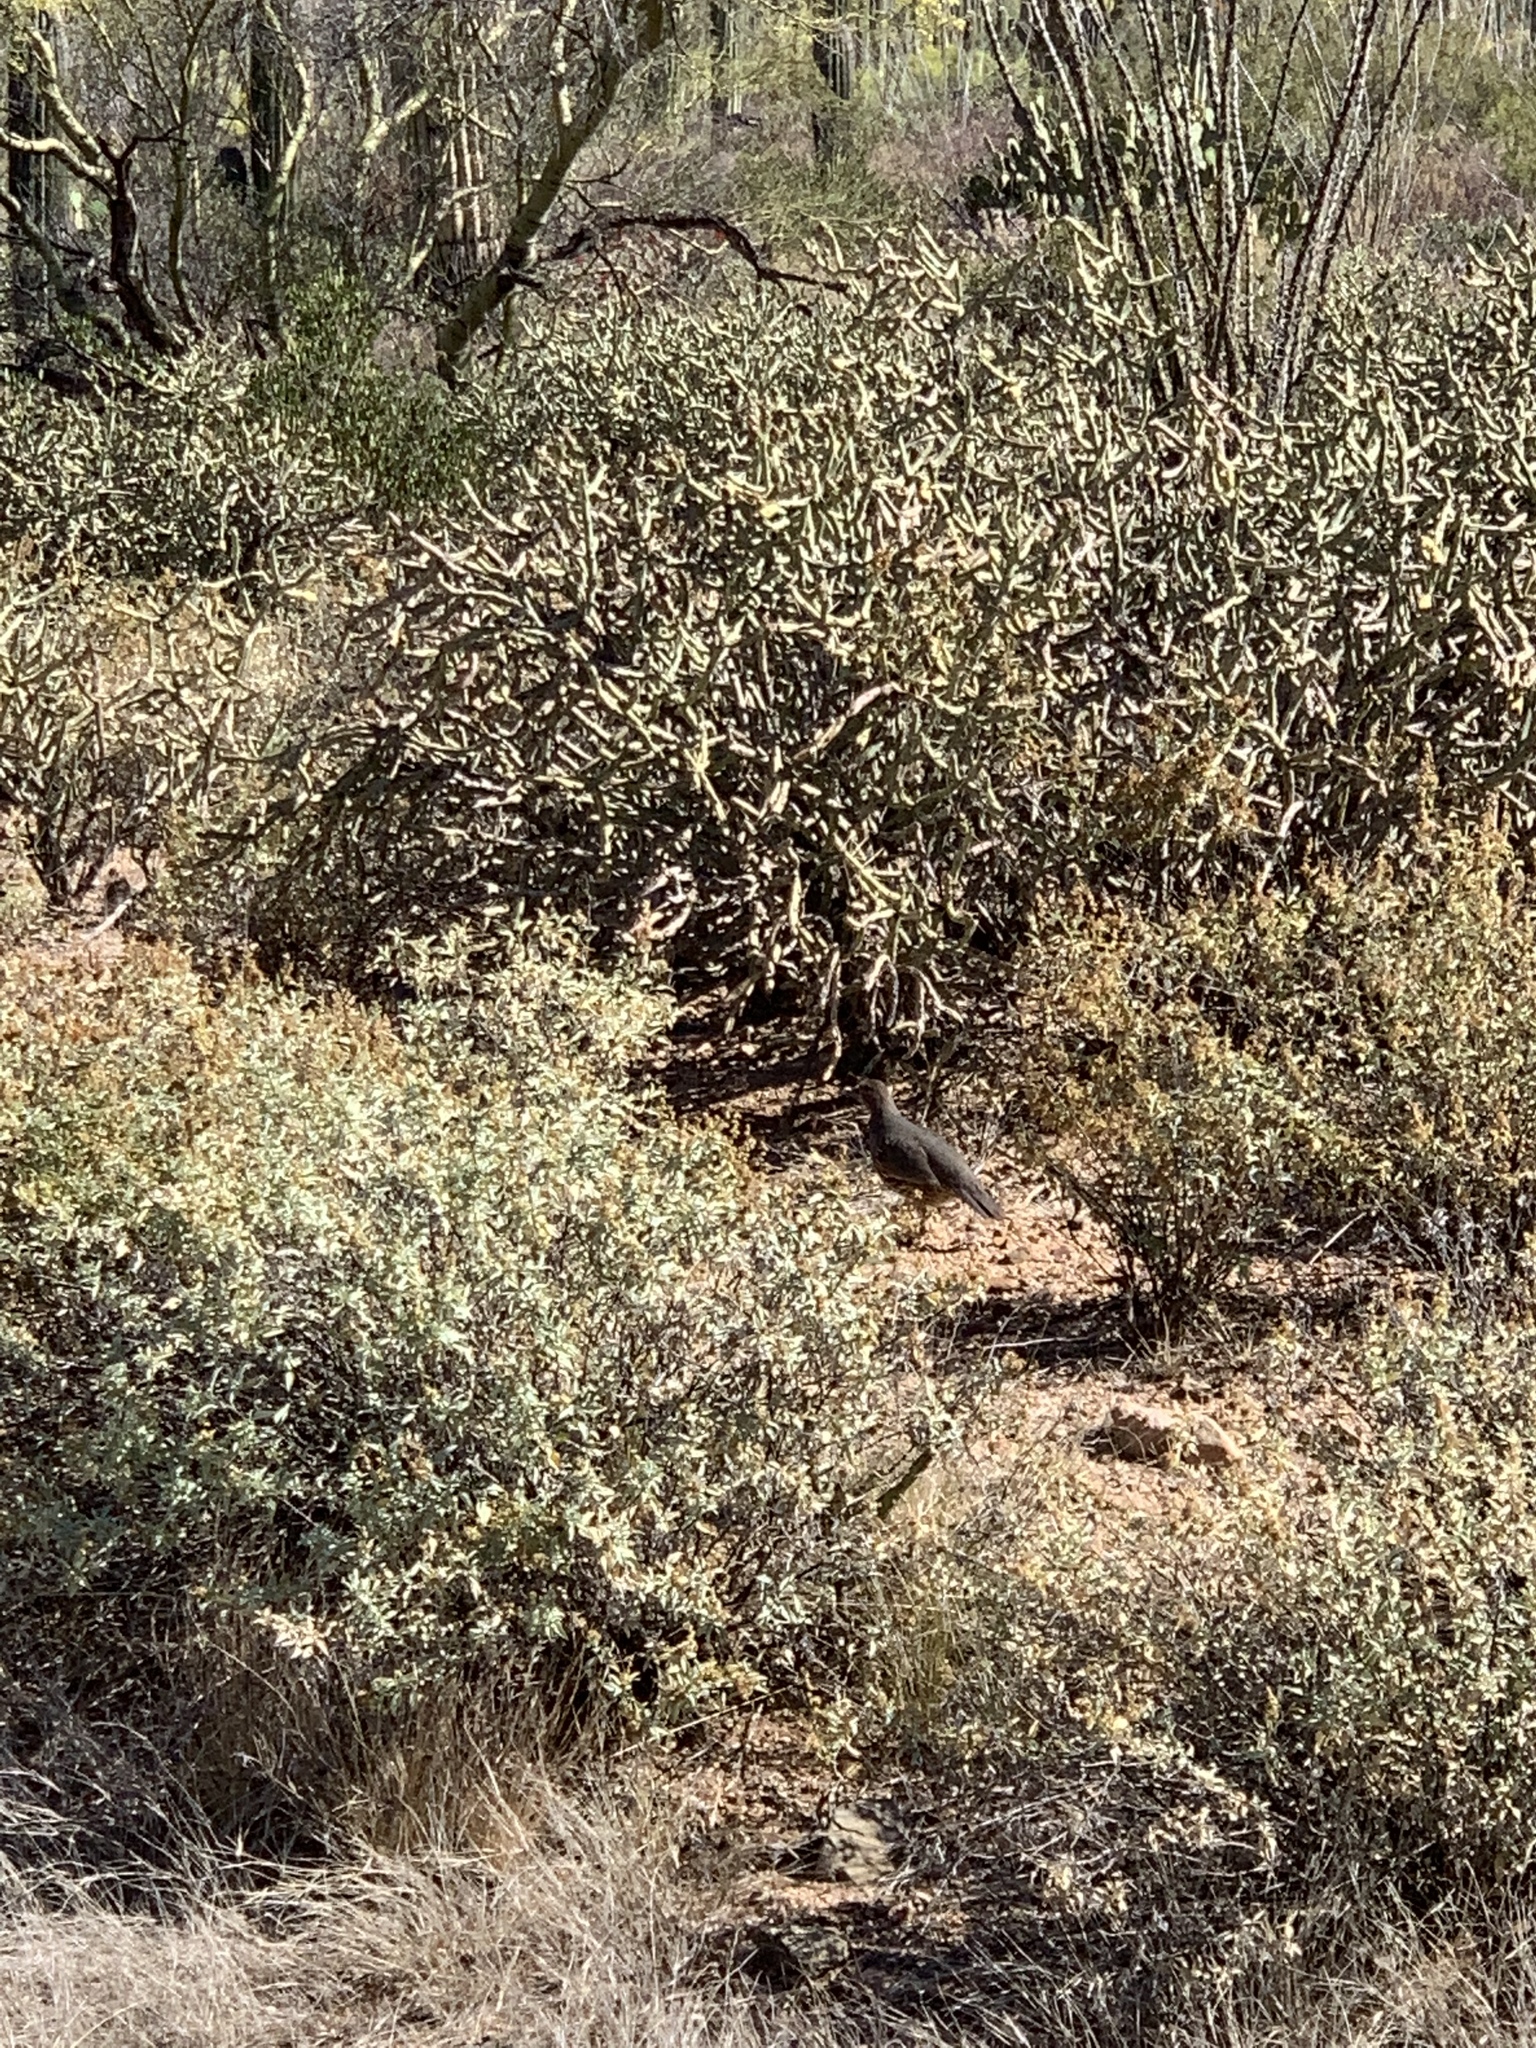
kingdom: Animalia
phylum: Chordata
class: Aves
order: Galliformes
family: Odontophoridae
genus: Callipepla
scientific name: Callipepla gambelii
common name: Gambel's quail
